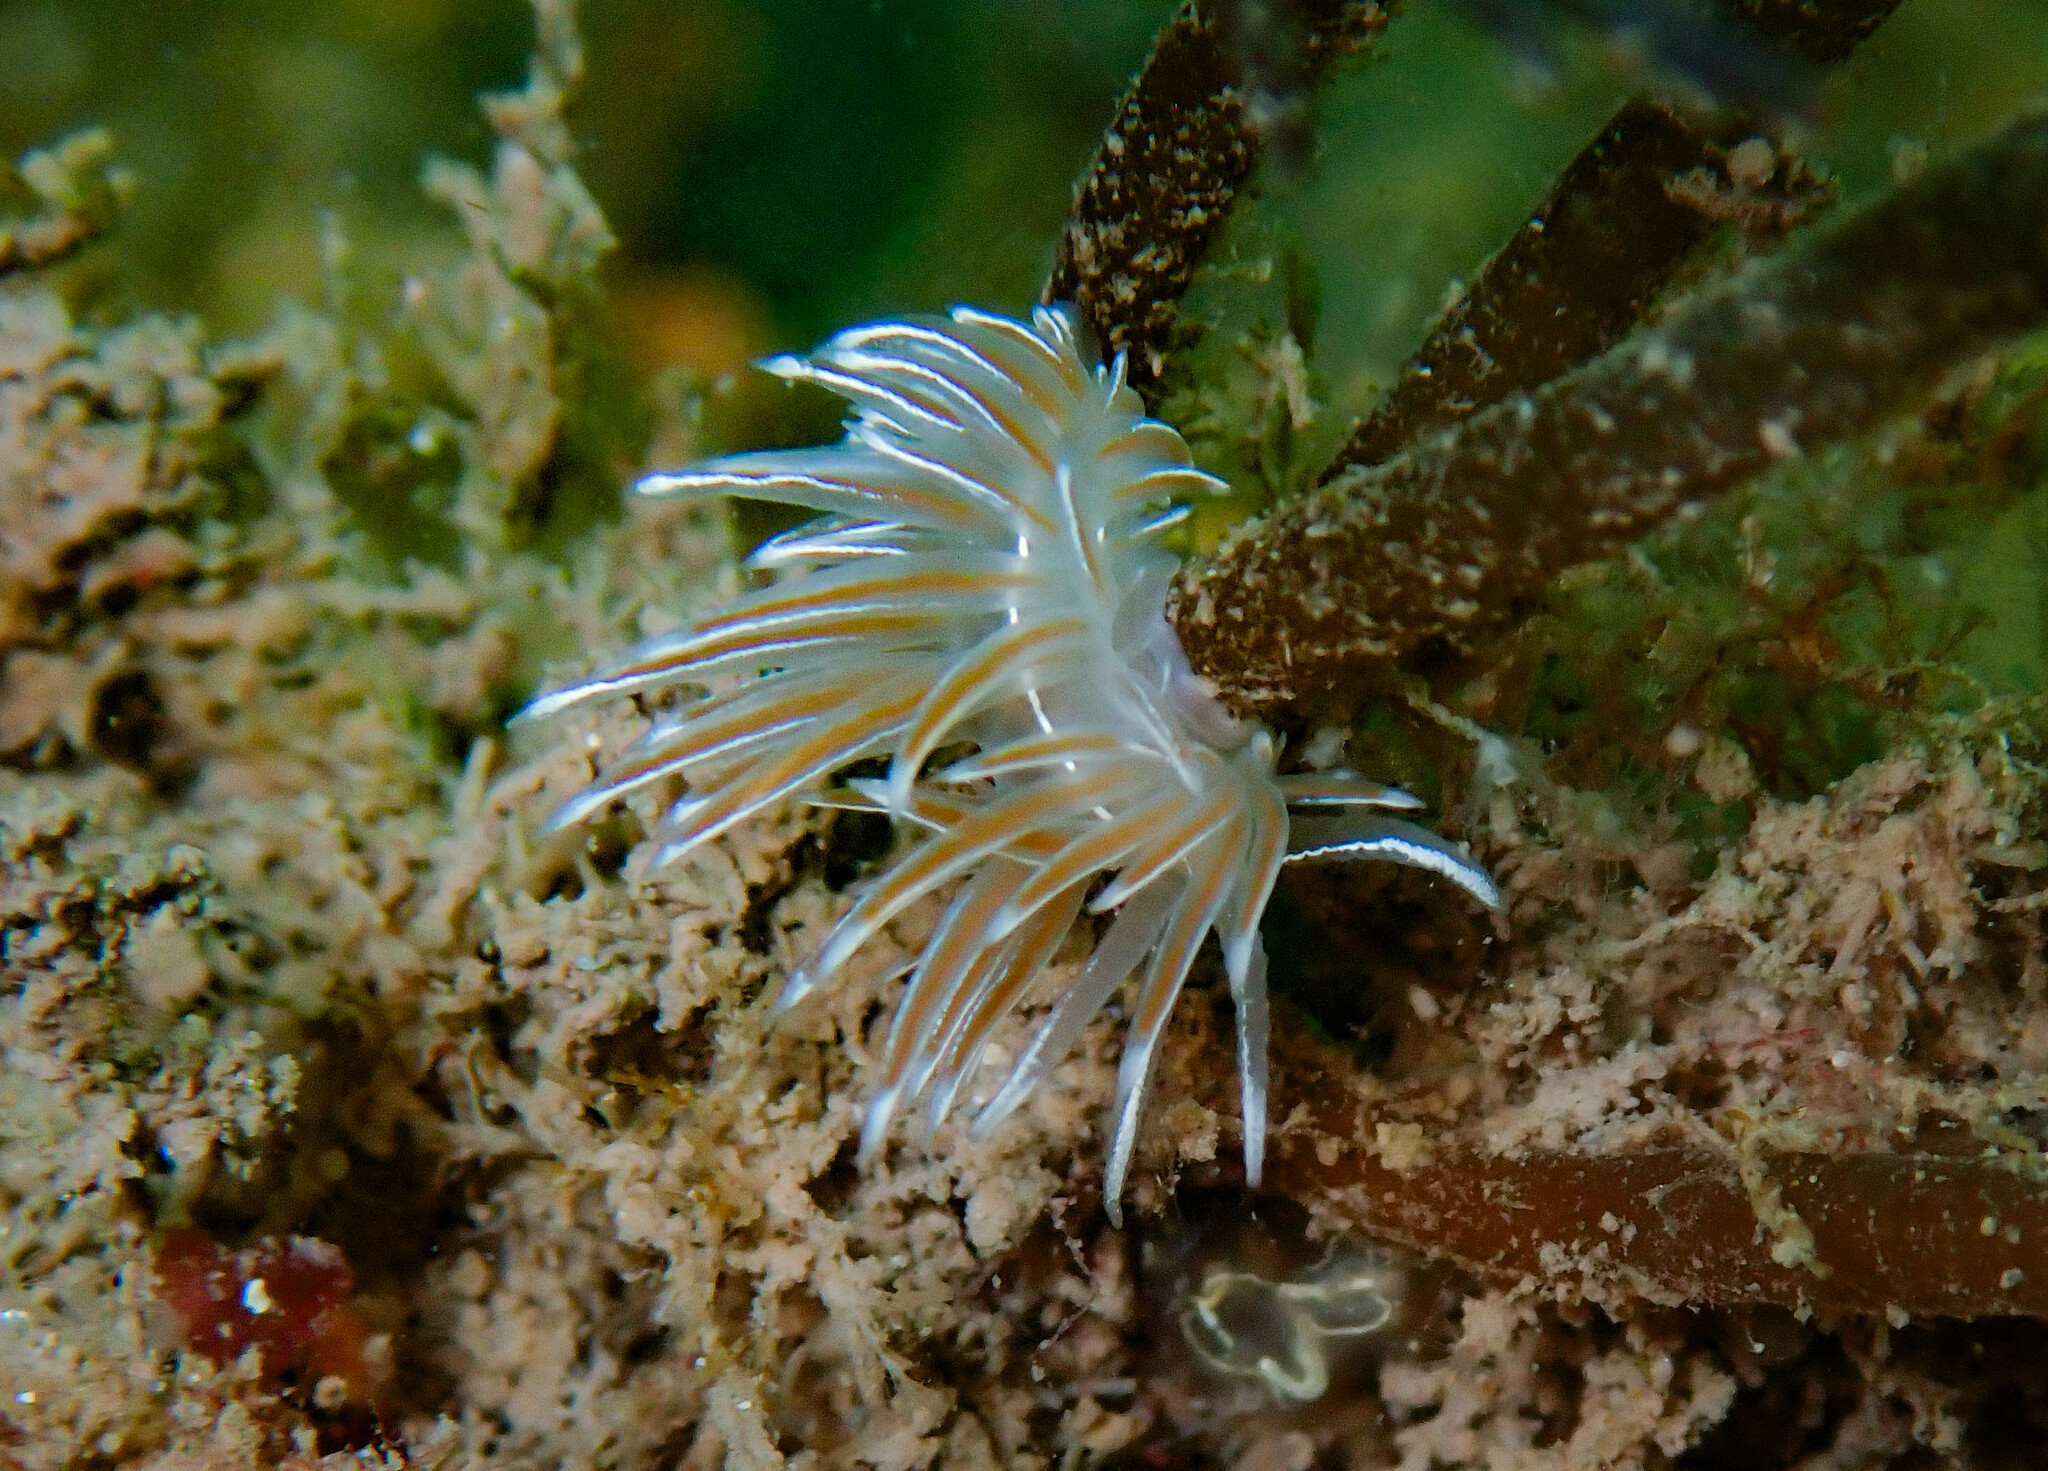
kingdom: Animalia
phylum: Mollusca
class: Gastropoda
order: Nudibranchia
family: Coryphellidae
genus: Coryphella
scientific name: Coryphella lineata
